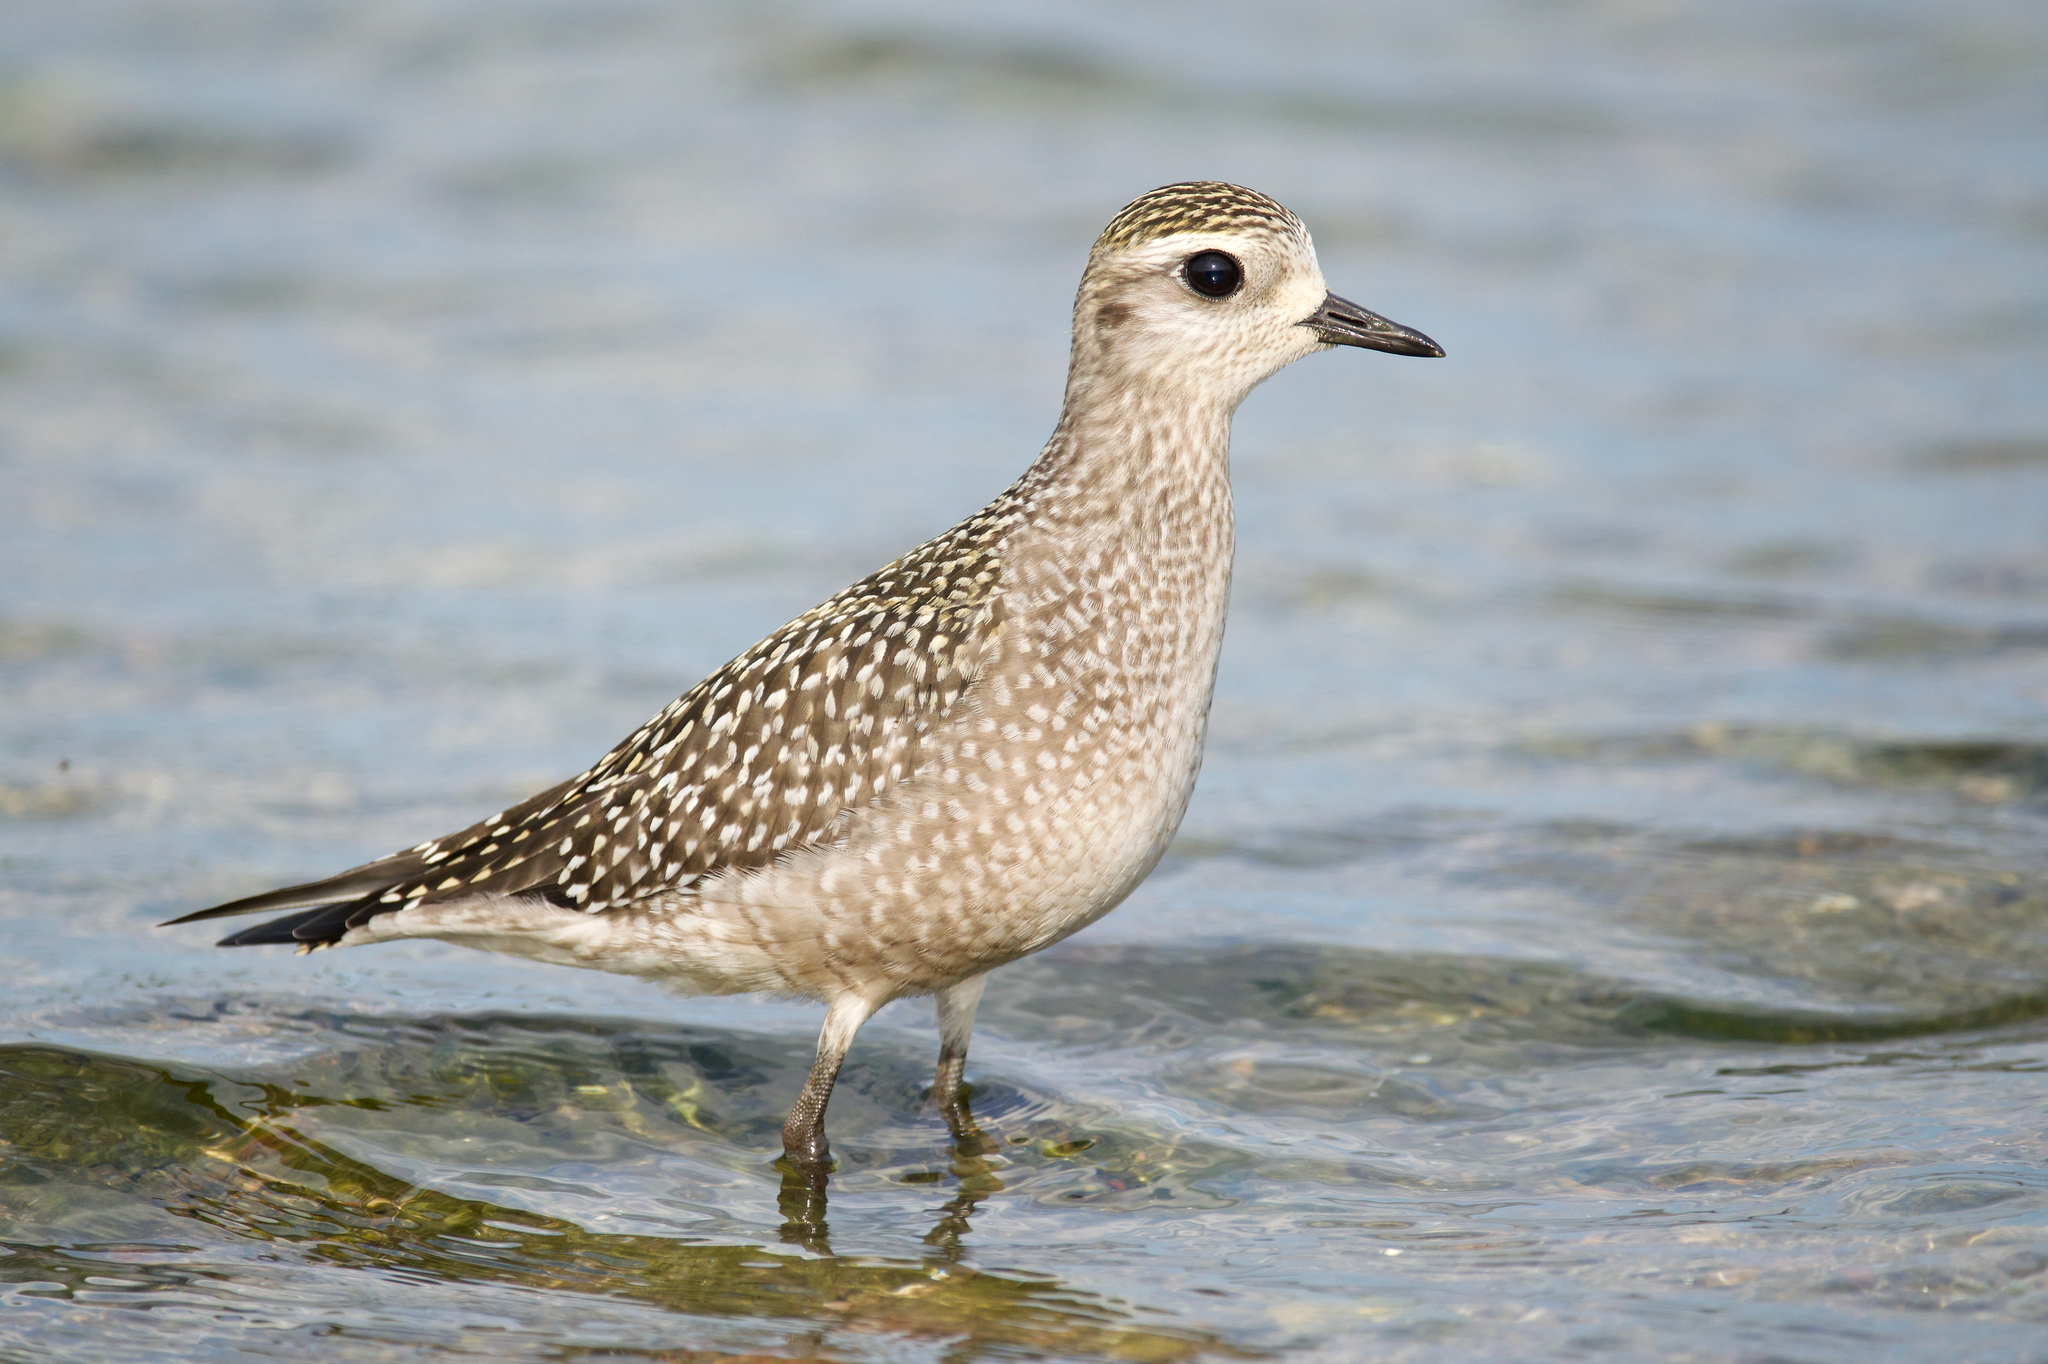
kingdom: Animalia
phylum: Chordata
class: Aves
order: Charadriiformes
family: Charadriidae
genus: Pluvialis
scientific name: Pluvialis dominica
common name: American golden plover
